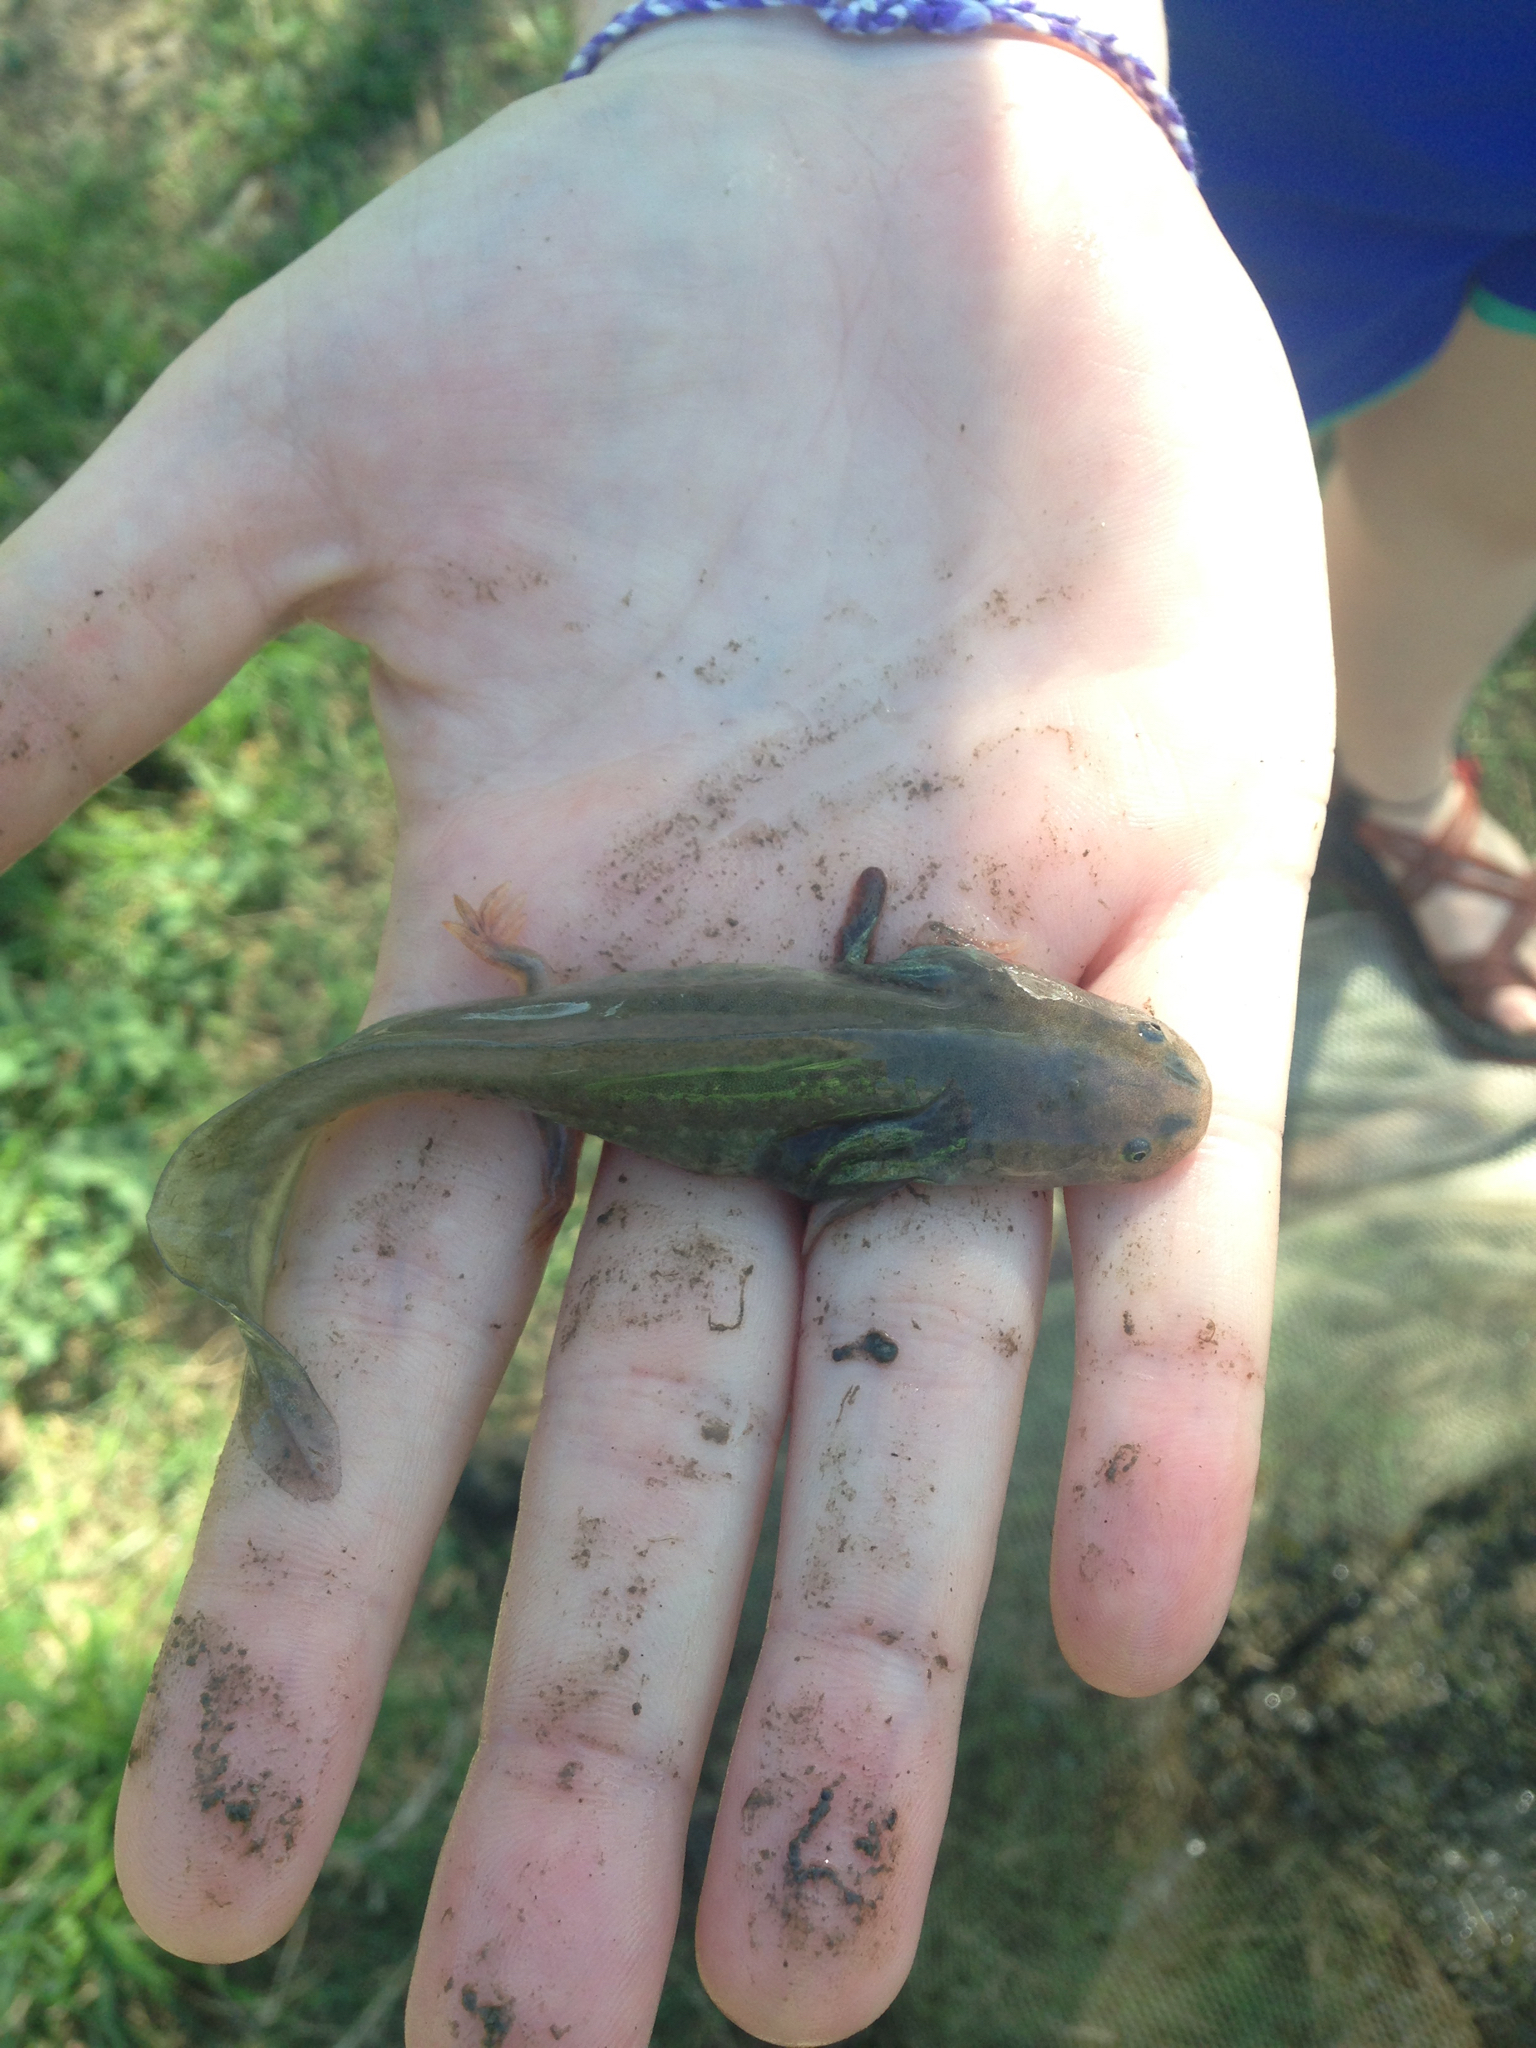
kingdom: Animalia
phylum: Chordata
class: Amphibia
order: Caudata
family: Ambystomatidae
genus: Ambystoma
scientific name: Ambystoma mavortium
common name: Western tiger salamander
